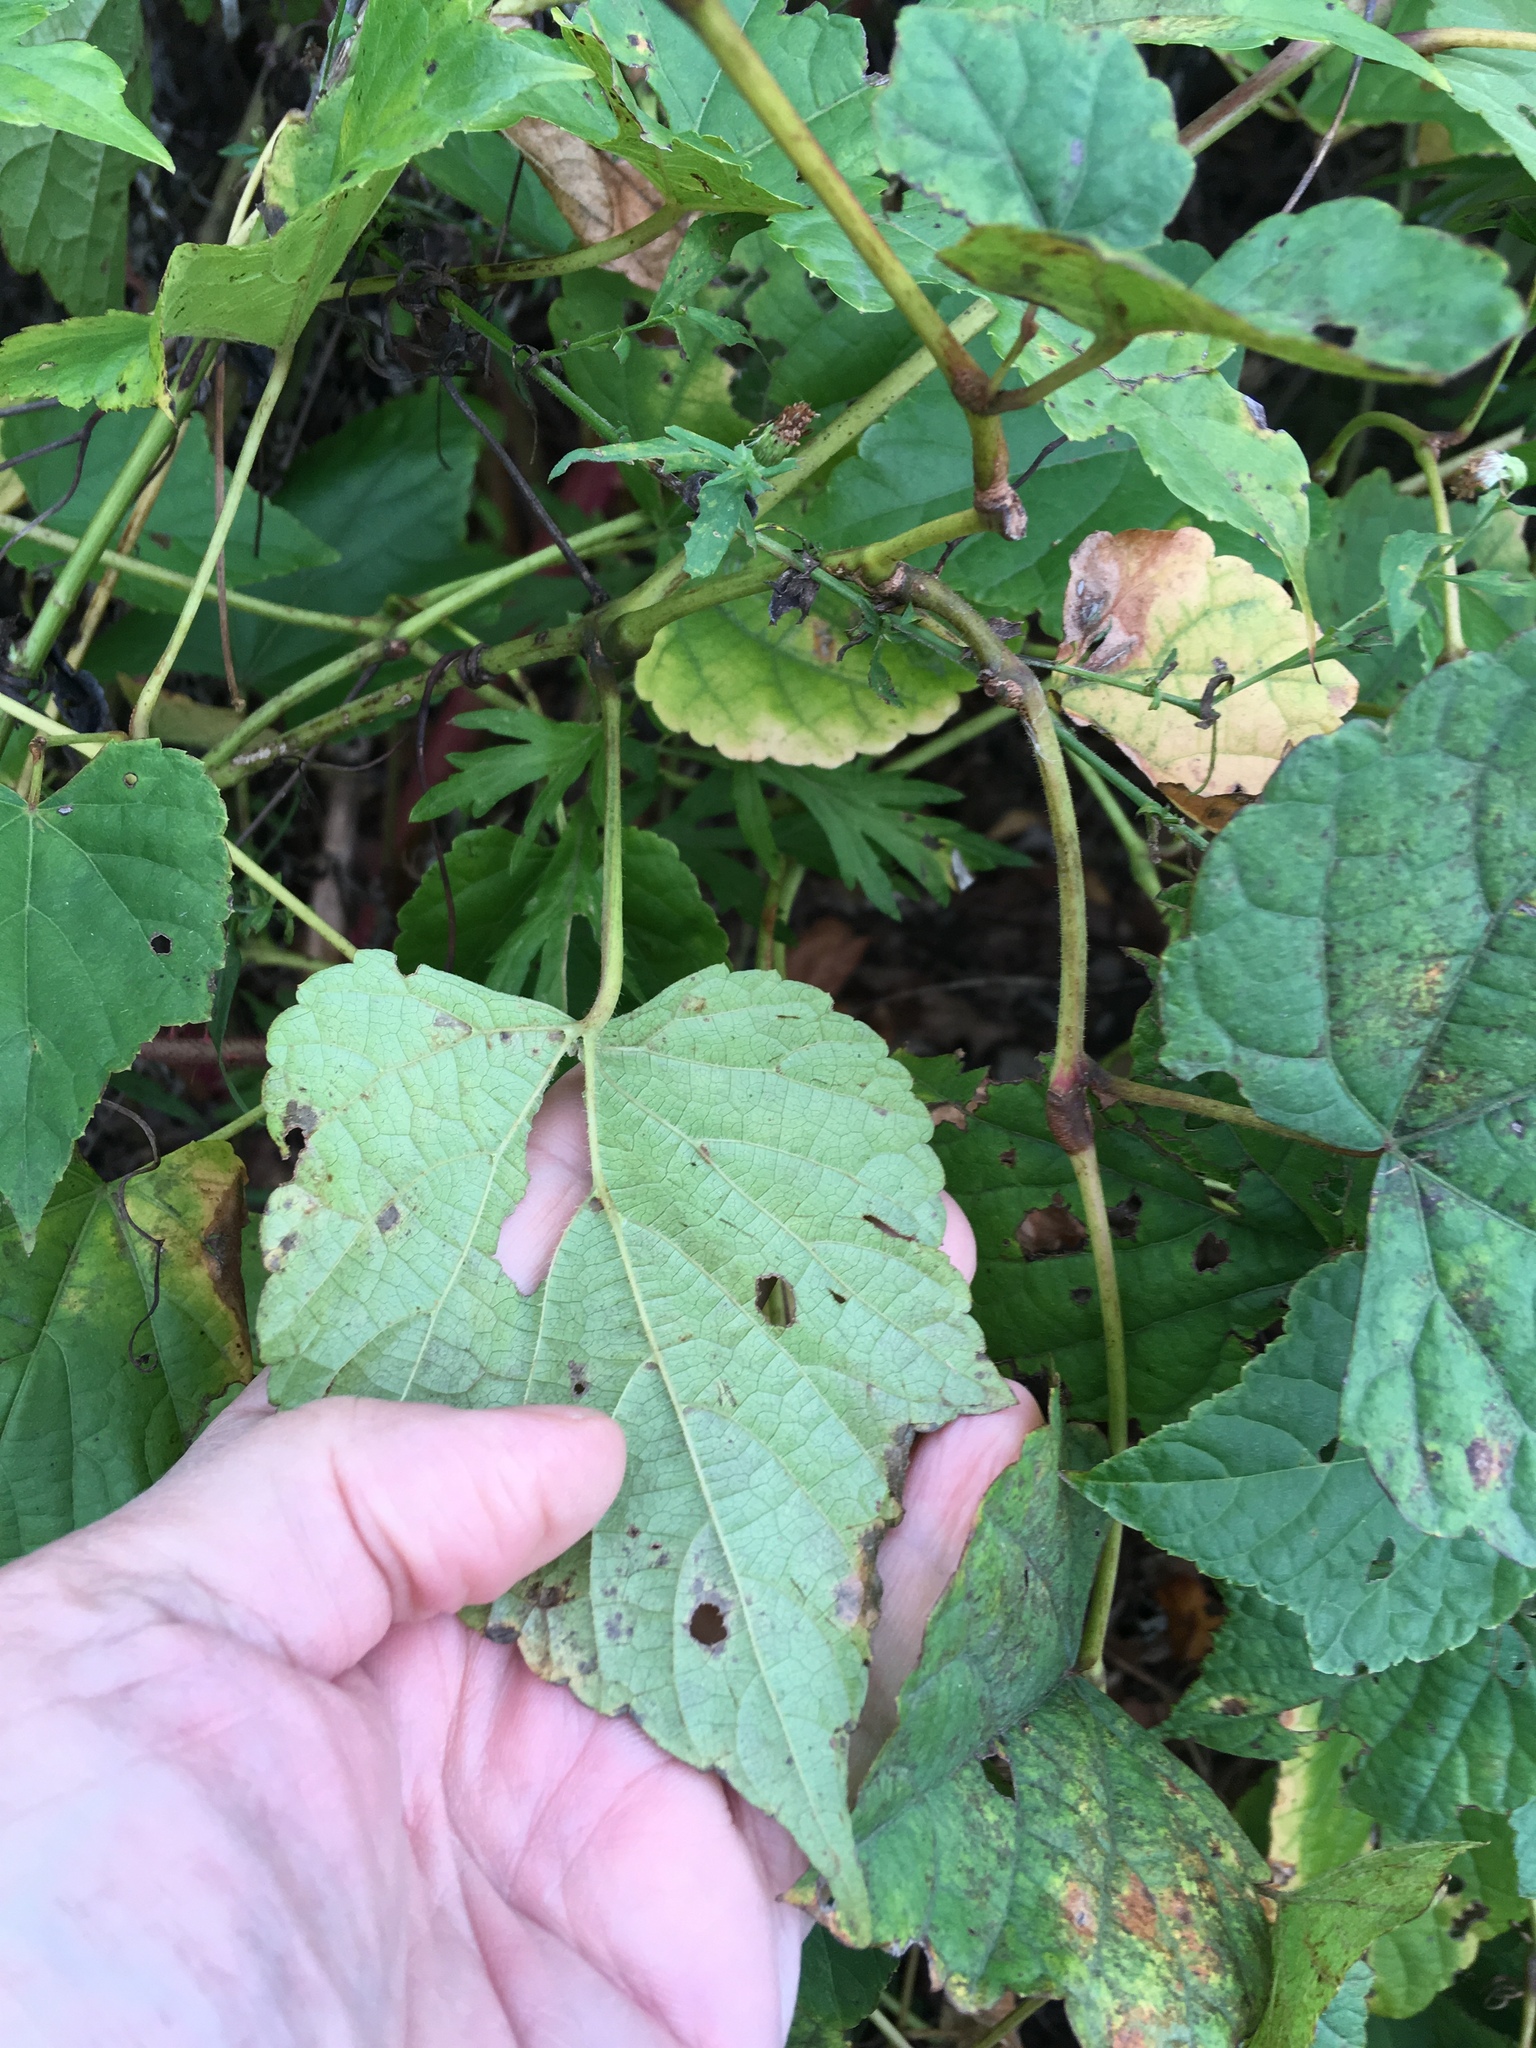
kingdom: Plantae
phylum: Tracheophyta
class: Magnoliopsida
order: Vitales
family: Vitaceae
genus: Ampelopsis
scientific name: Ampelopsis glandulosa
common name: Amur peppervine
